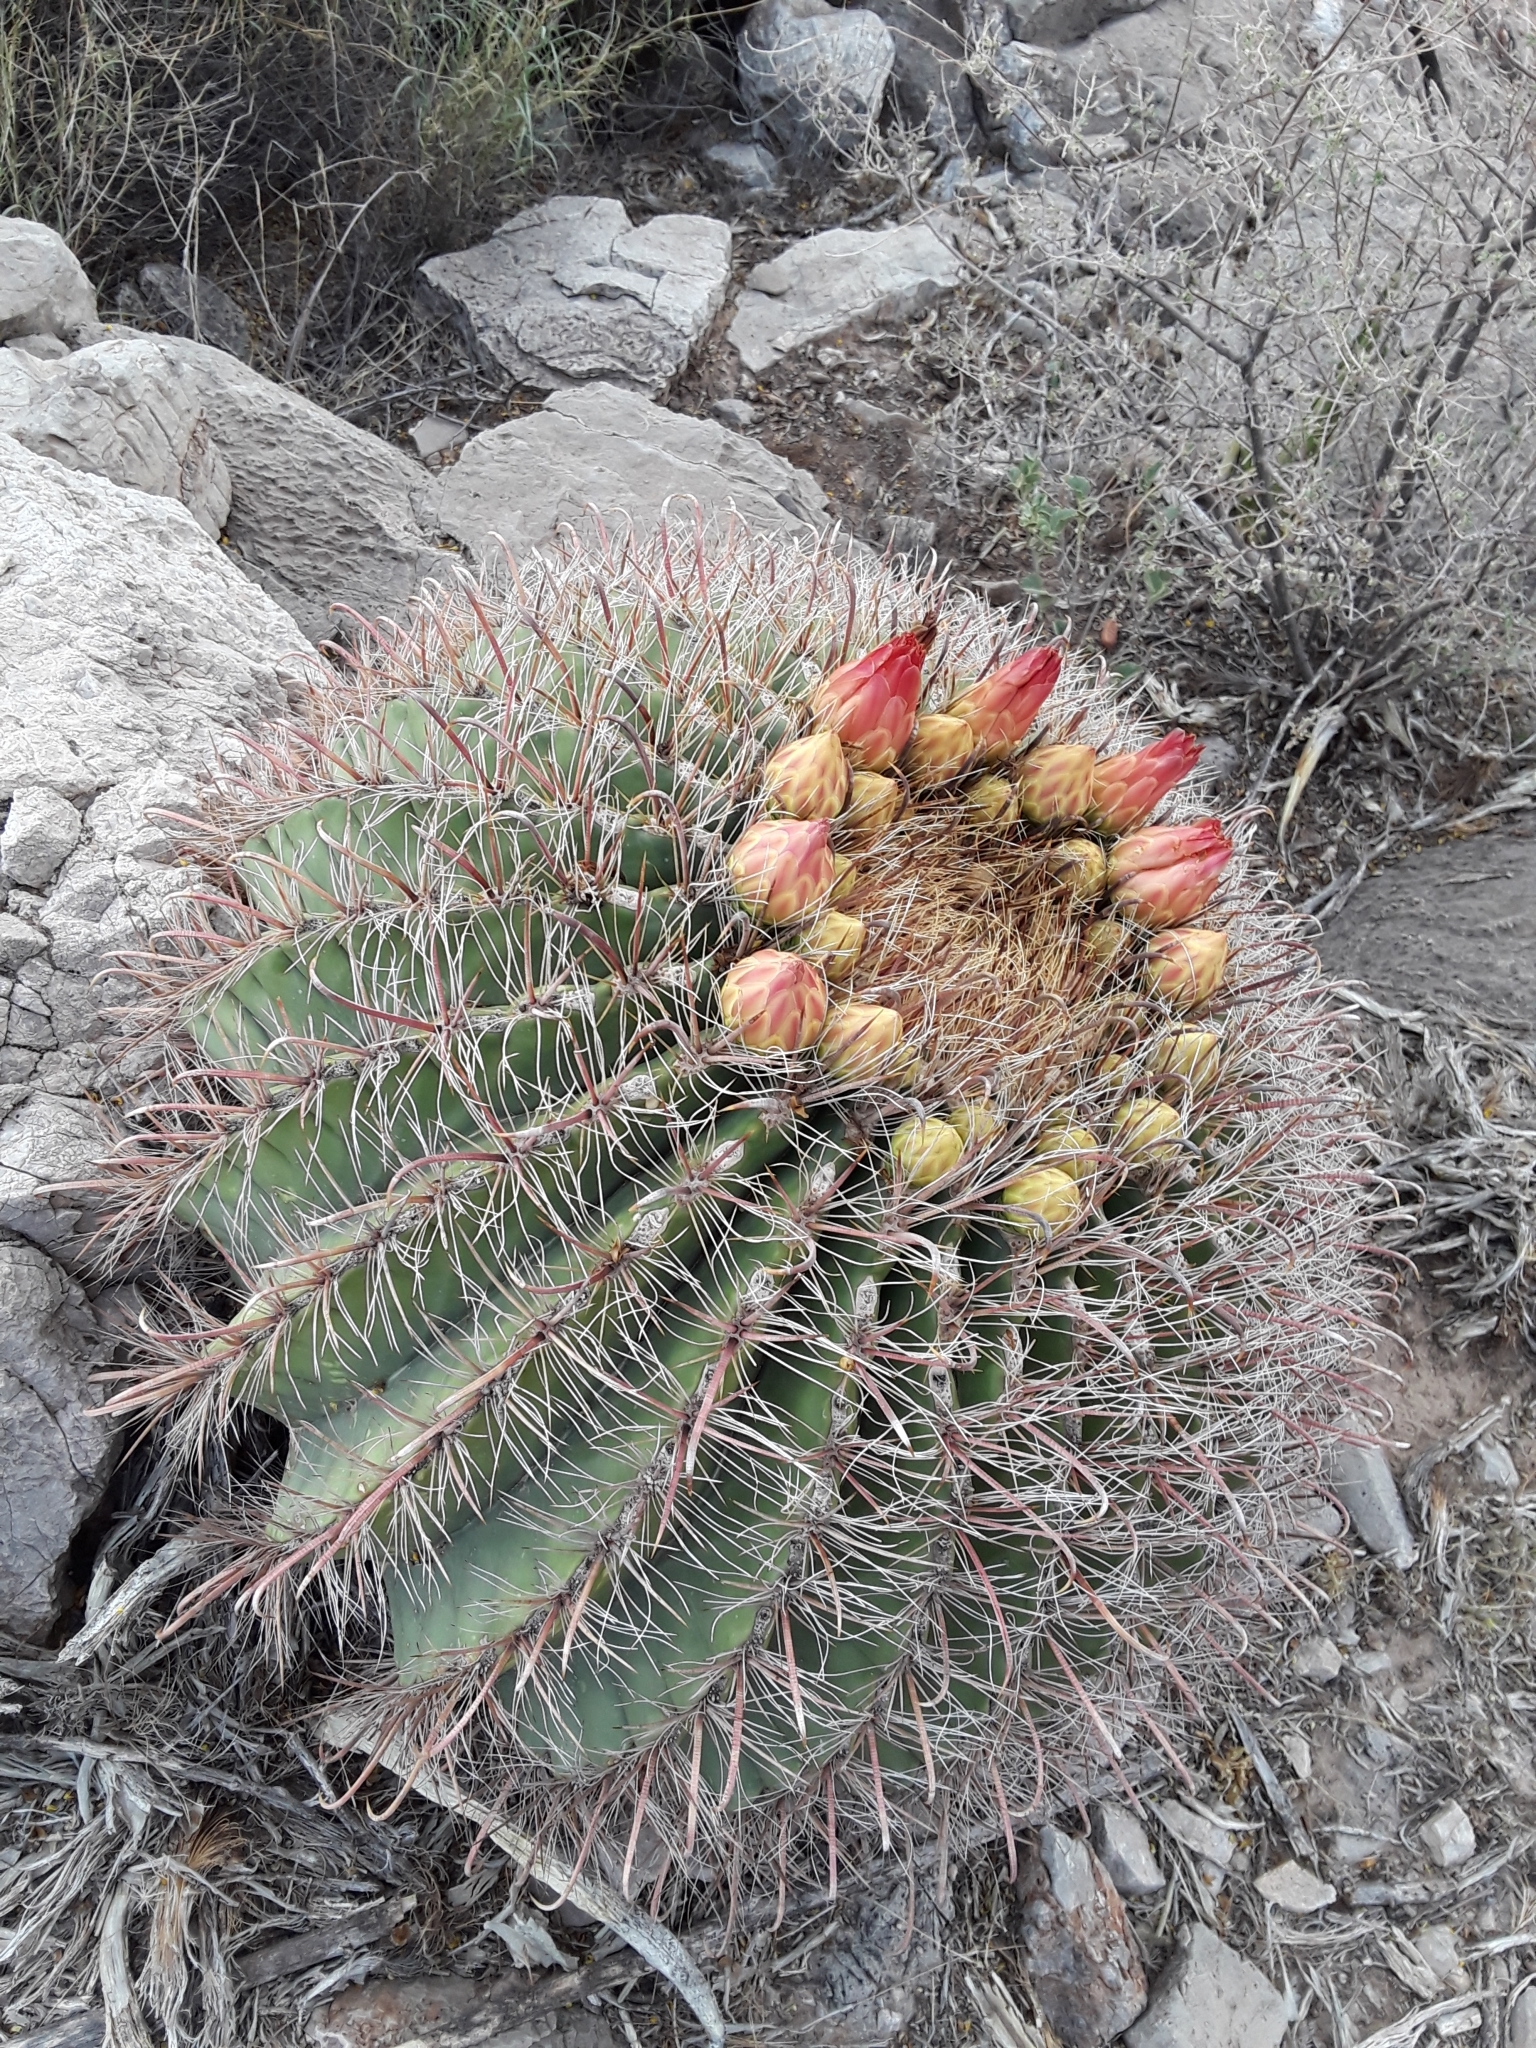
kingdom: Plantae
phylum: Tracheophyta
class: Magnoliopsida
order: Caryophyllales
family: Cactaceae
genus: Ferocactus
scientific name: Ferocactus wislizeni
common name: Candy barrel cactus
